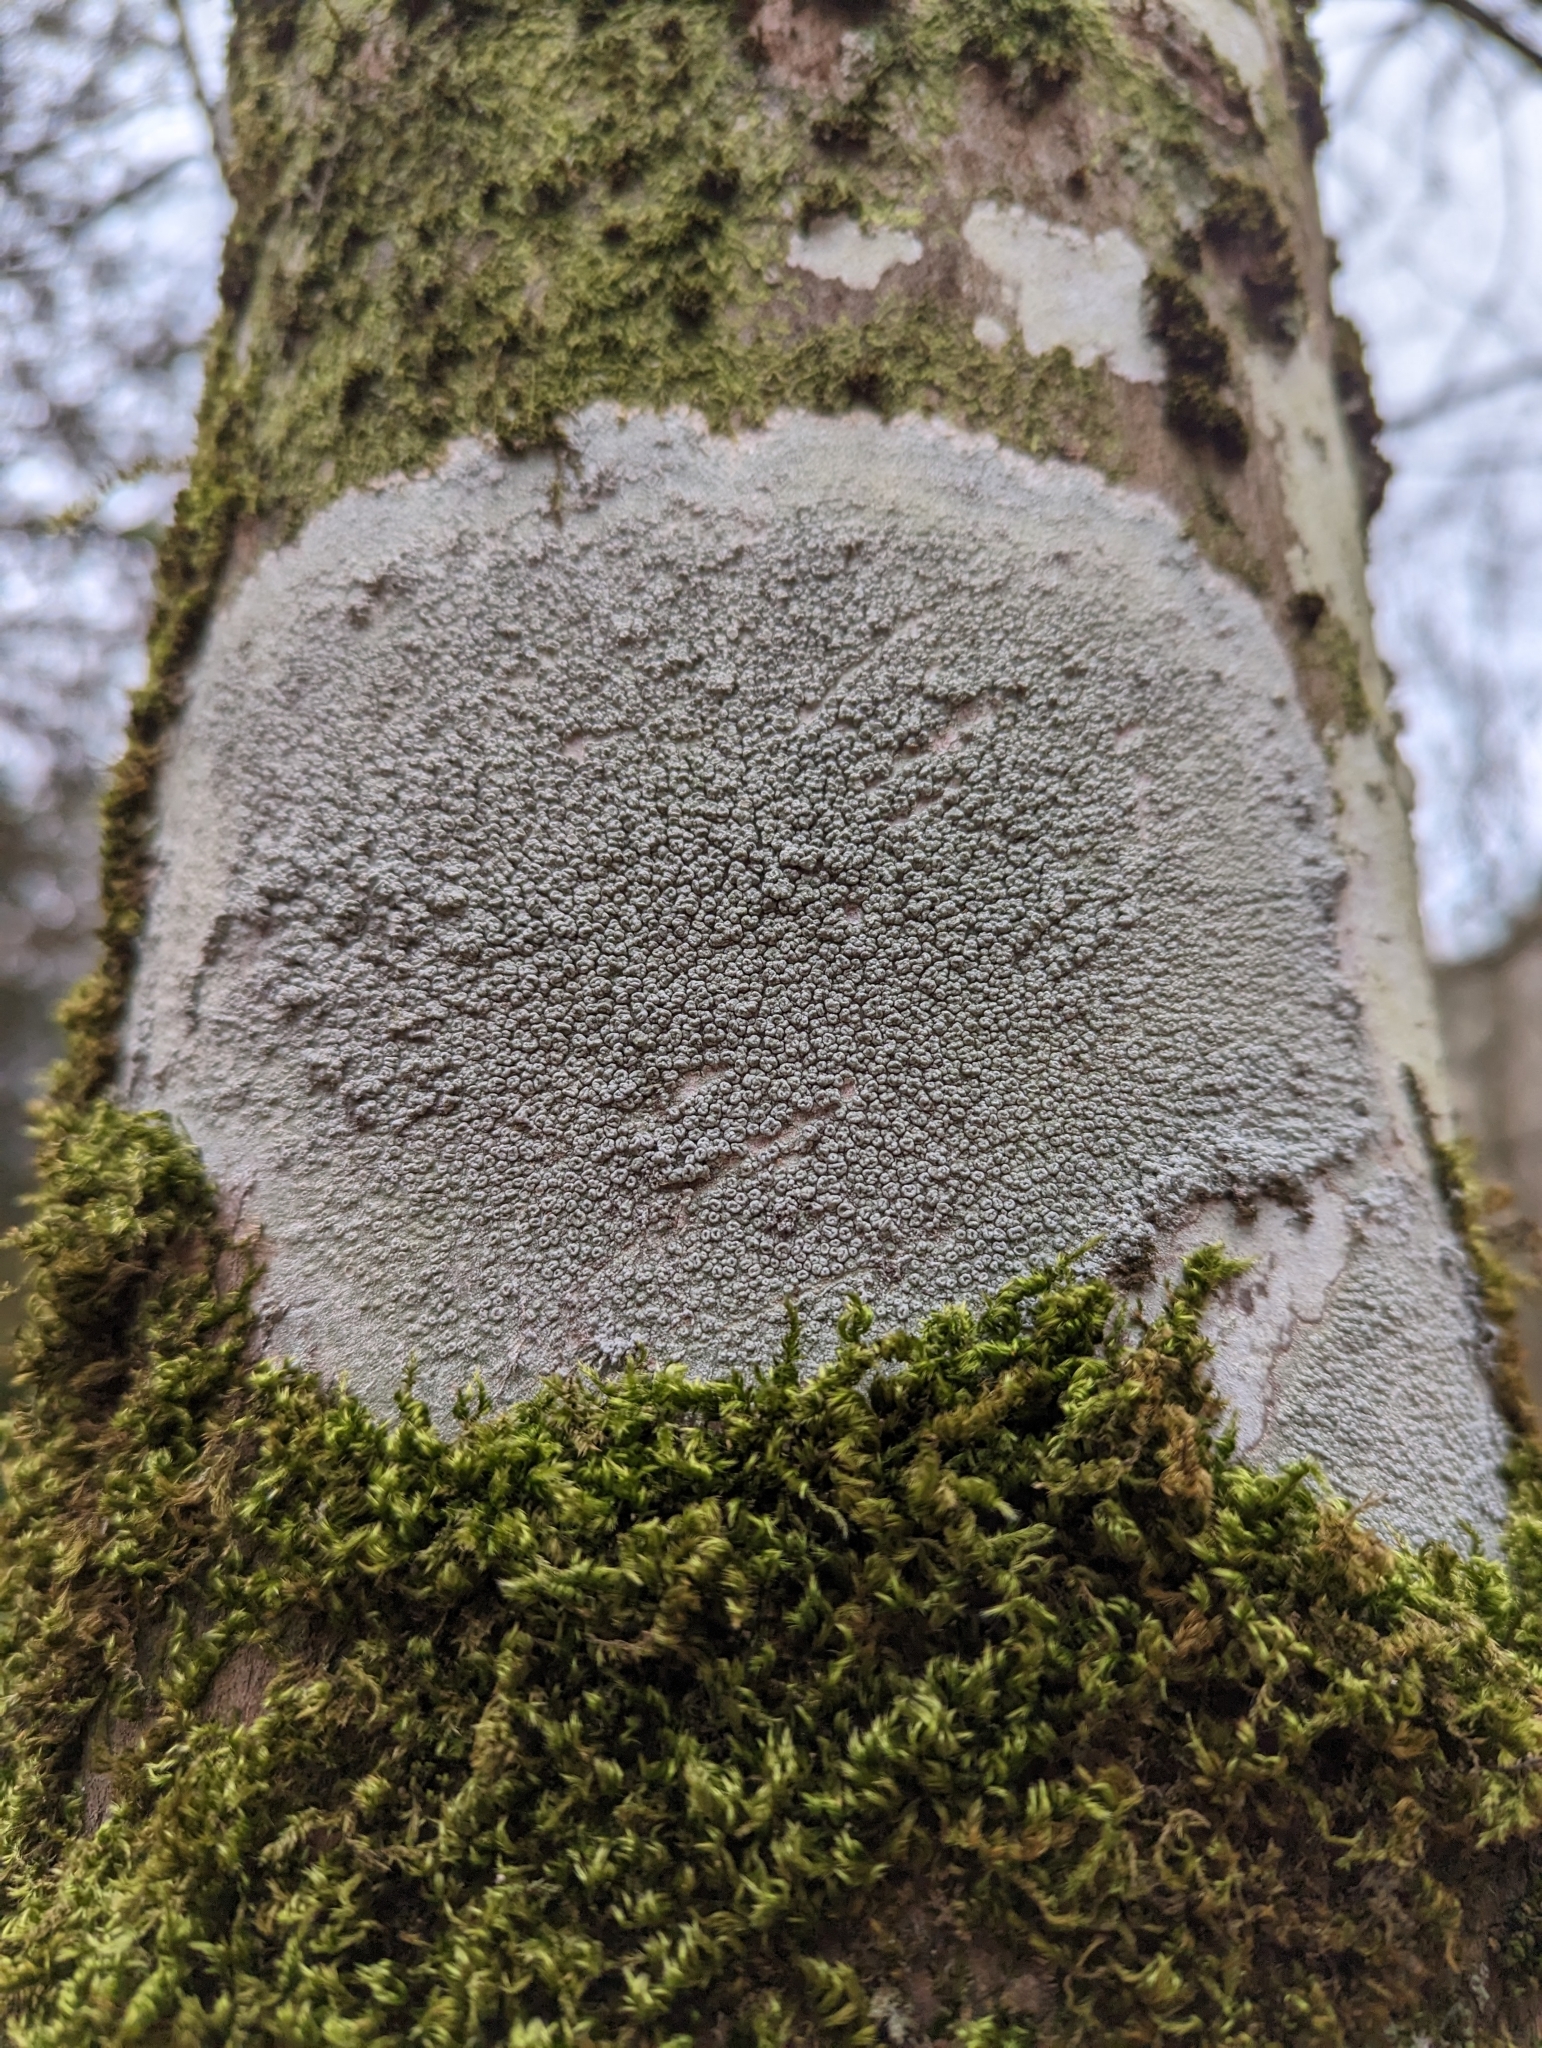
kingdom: Fungi
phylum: Ascomycota
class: Lecanoromycetes
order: Pertusariales
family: Pertusariaceae
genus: Pertusaria
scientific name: Pertusaria pertusa
